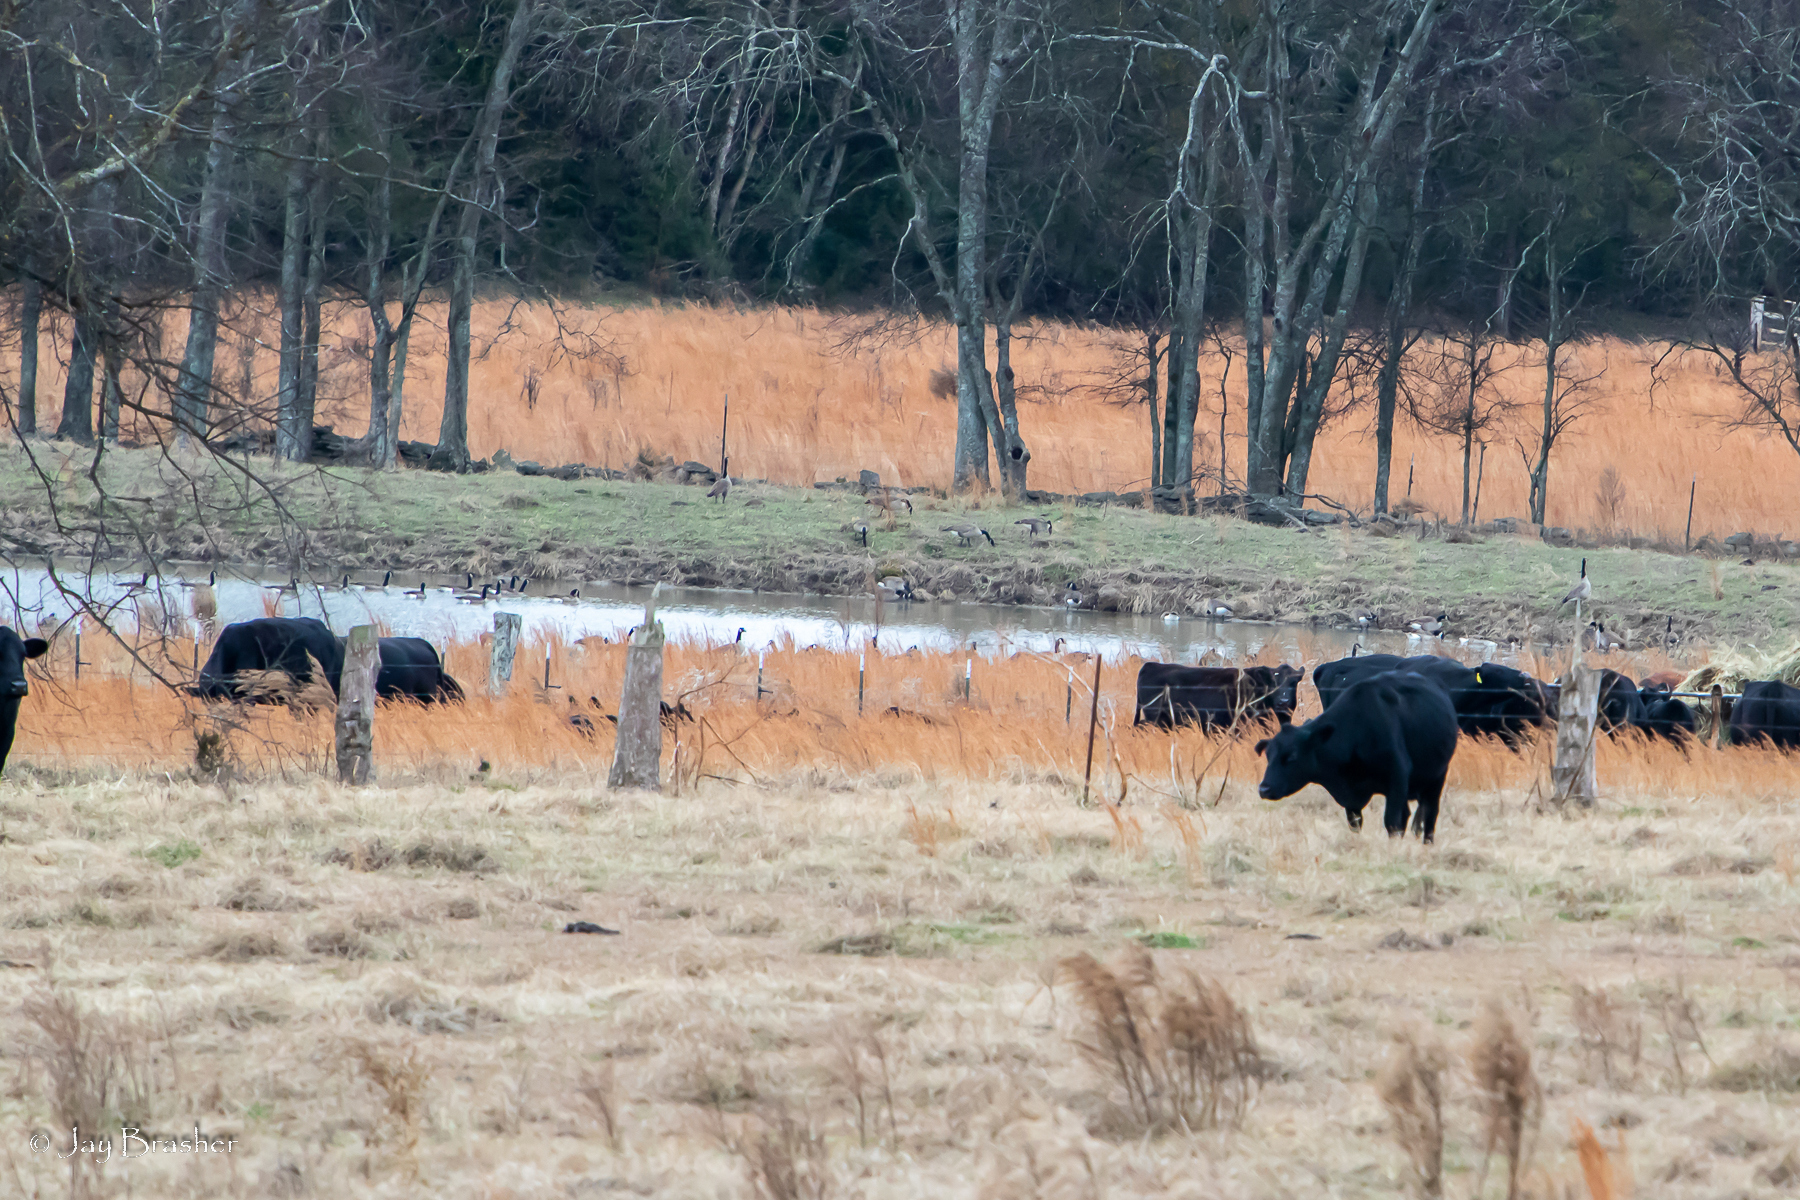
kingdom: Animalia
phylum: Chordata
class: Aves
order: Anseriformes
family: Anatidae
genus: Branta
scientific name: Branta canadensis
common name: Canada goose
